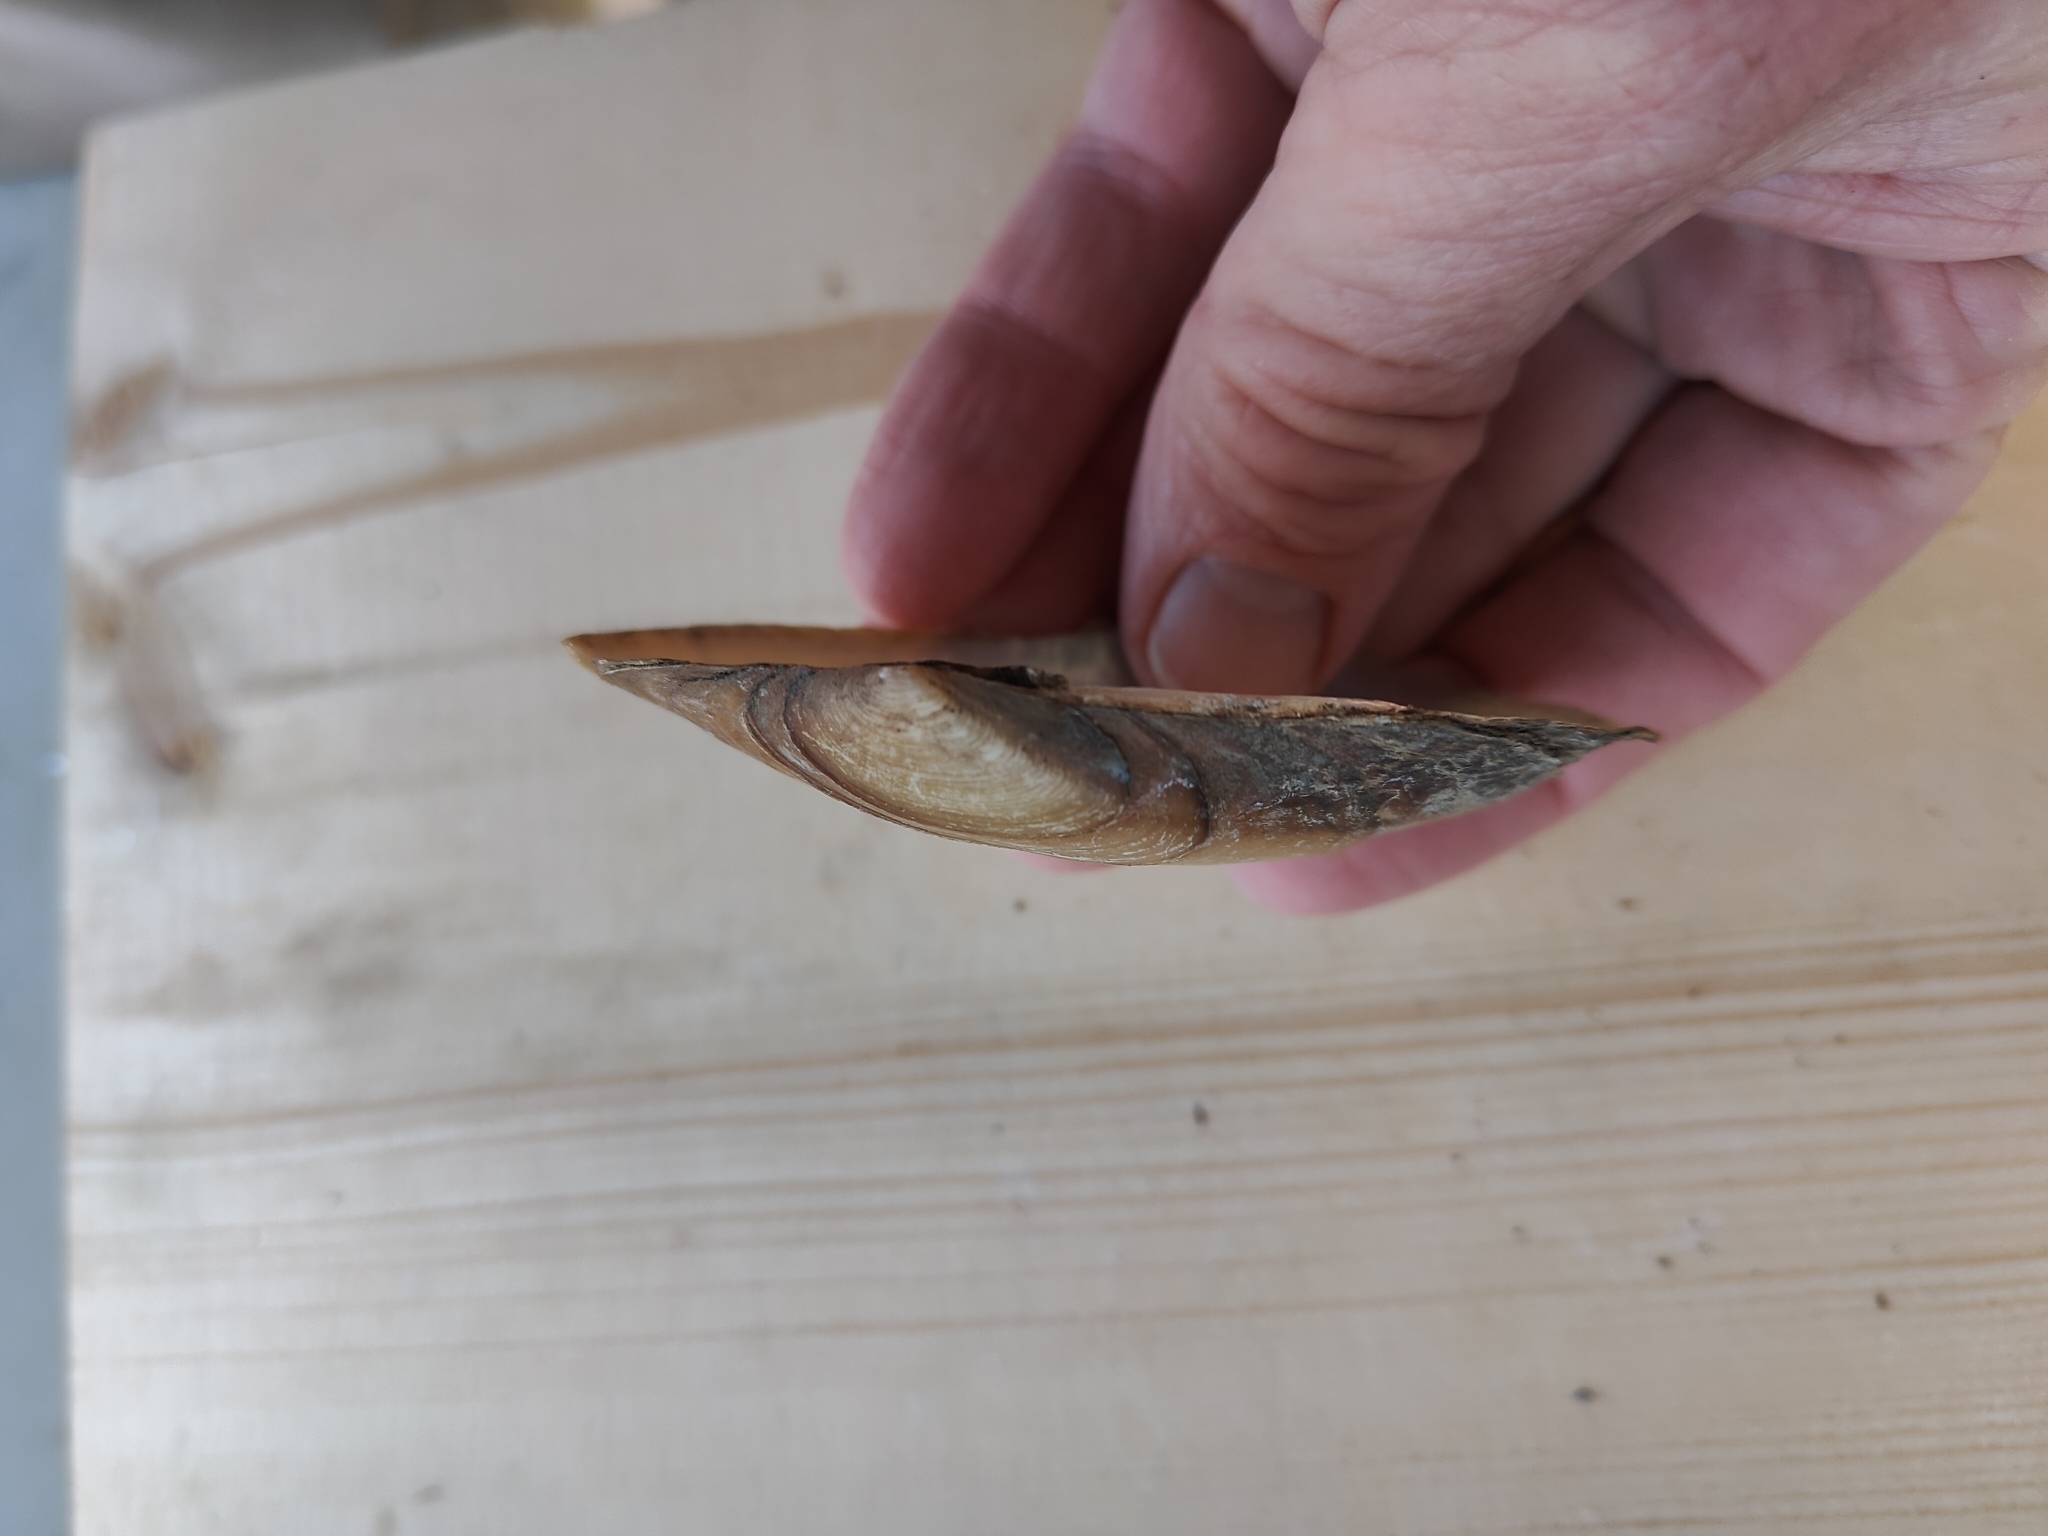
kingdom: Animalia
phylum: Mollusca
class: Bivalvia
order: Unionida
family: Unionidae
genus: Potamilus
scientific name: Potamilus fragilis
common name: Fragile papershell
